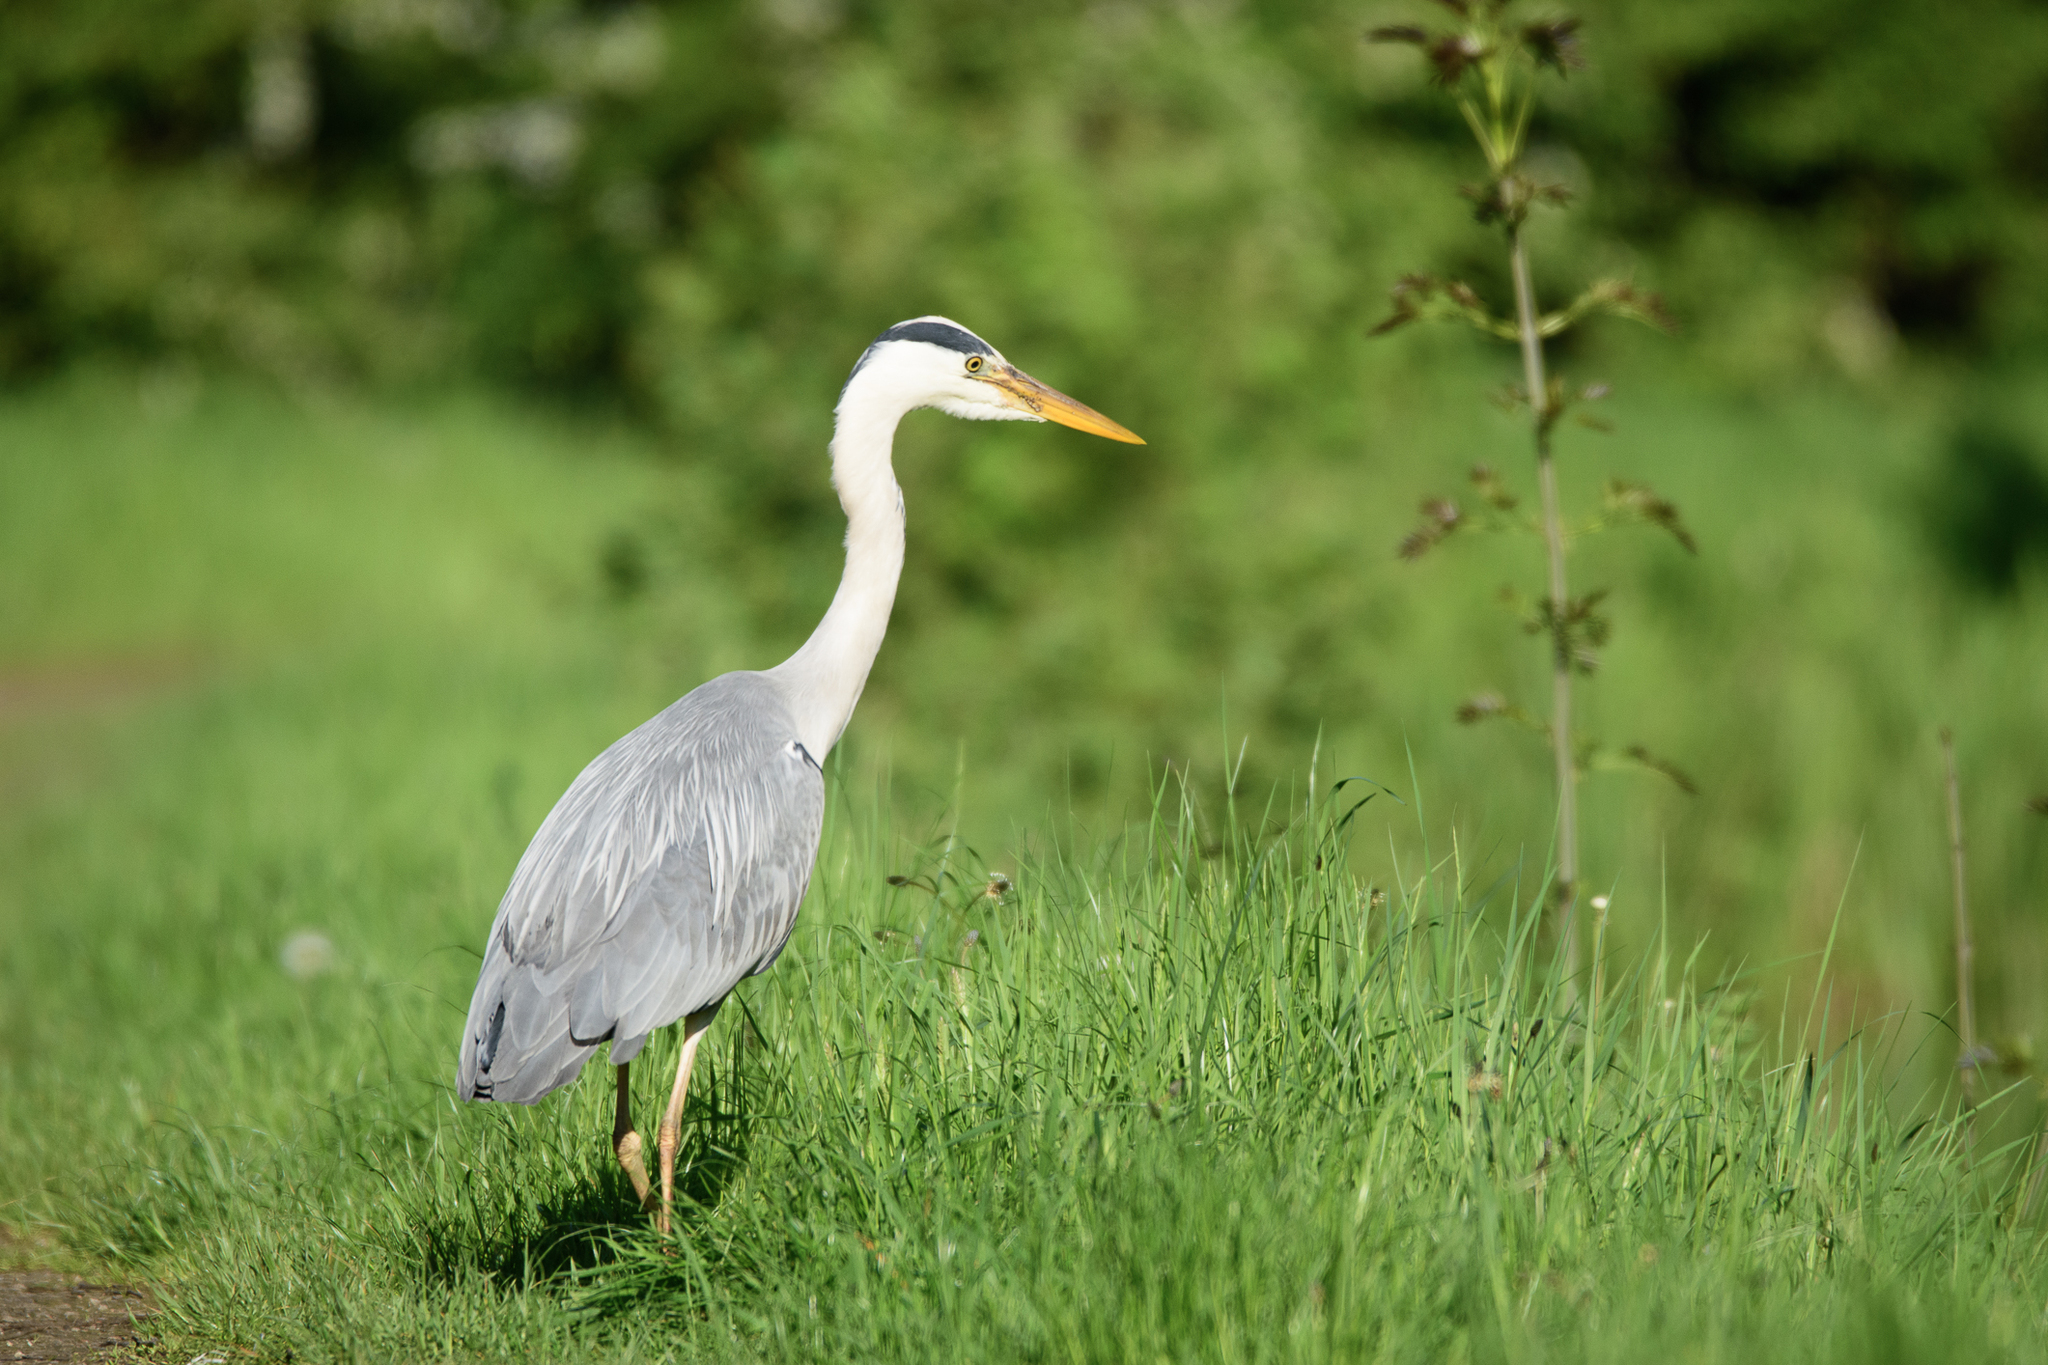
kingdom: Animalia
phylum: Chordata
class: Aves
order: Pelecaniformes
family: Ardeidae
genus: Ardea
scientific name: Ardea cinerea
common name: Grey heron
